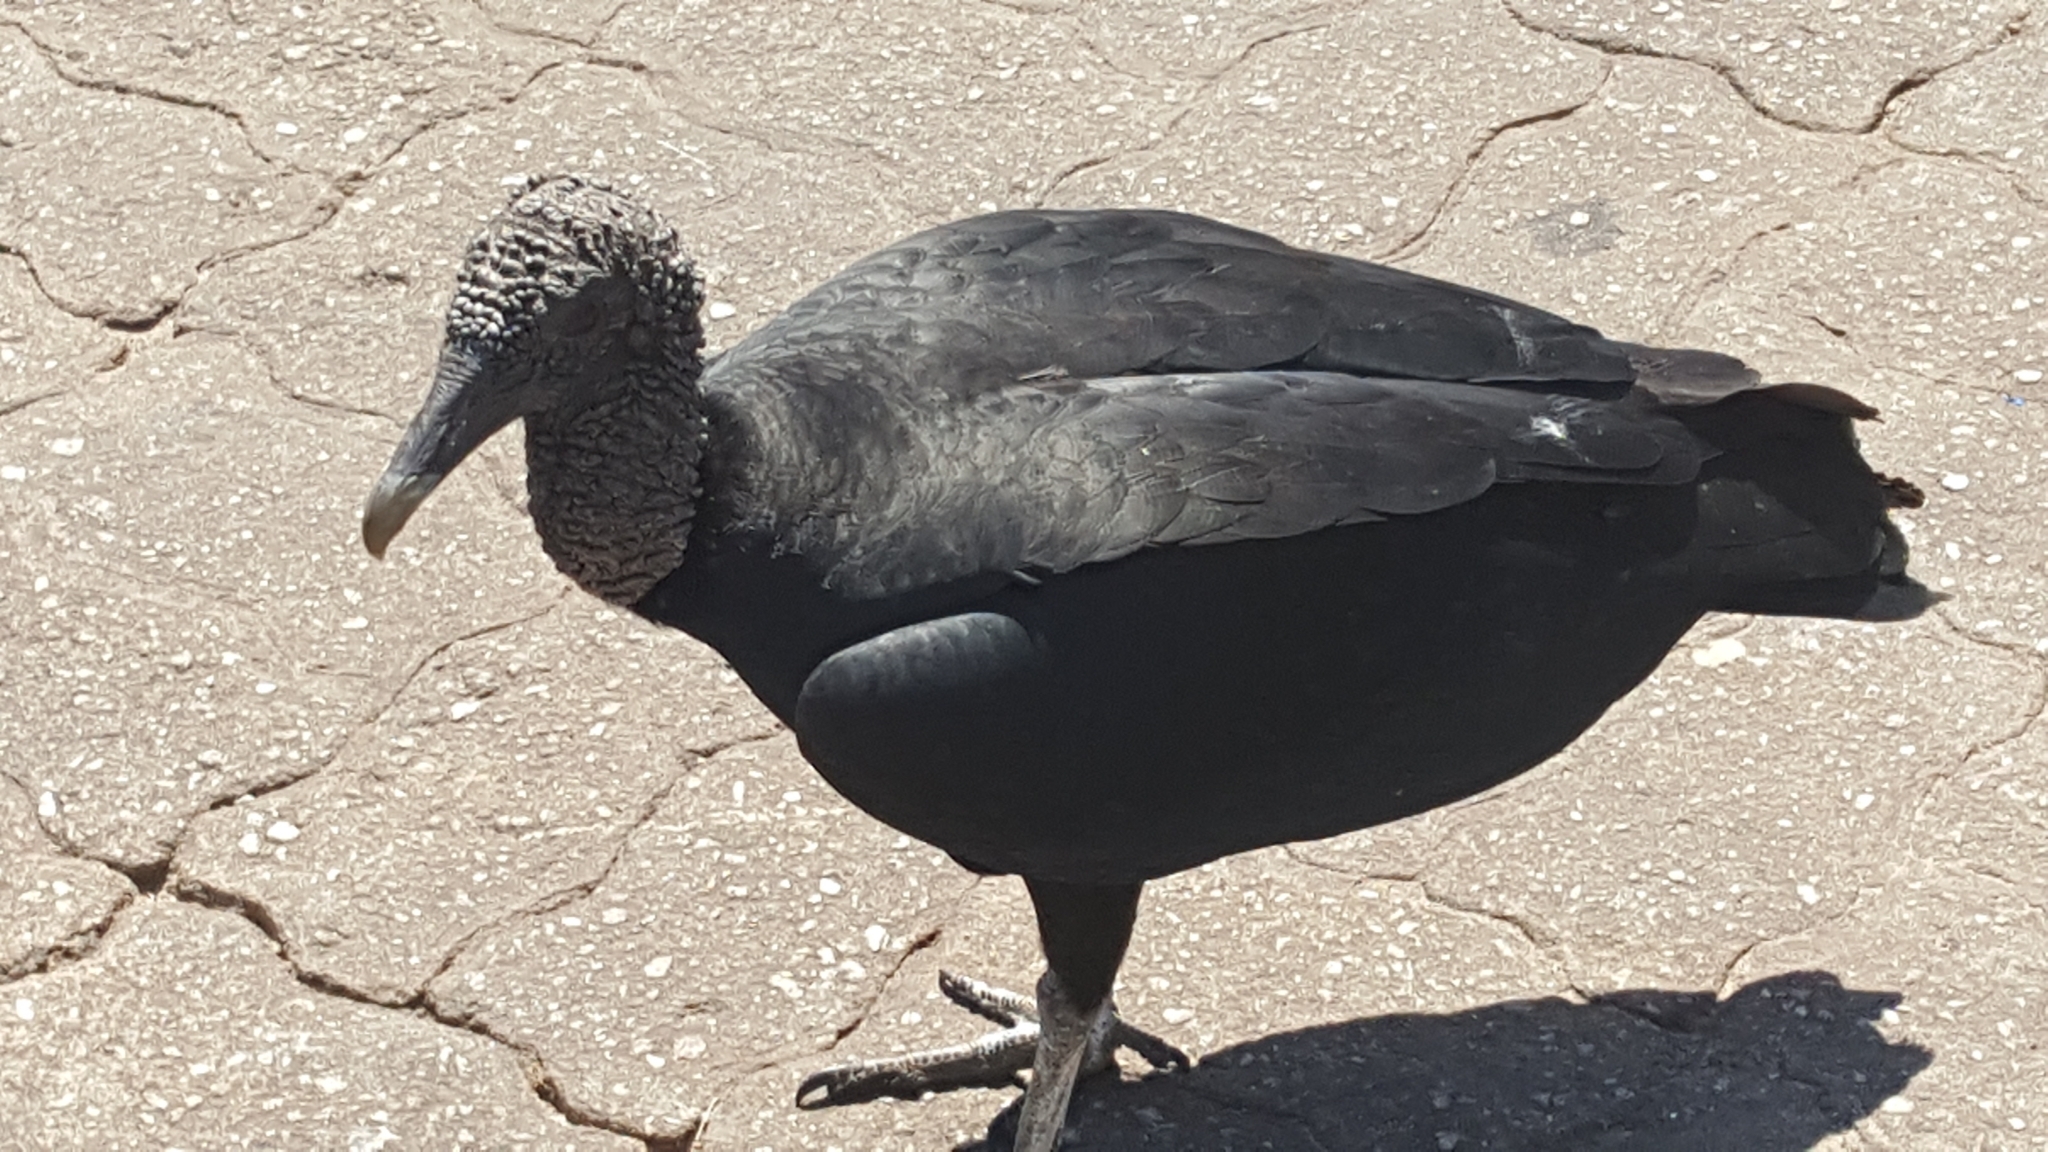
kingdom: Animalia
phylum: Chordata
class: Aves
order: Accipitriformes
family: Cathartidae
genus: Coragyps
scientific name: Coragyps atratus
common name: Black vulture
